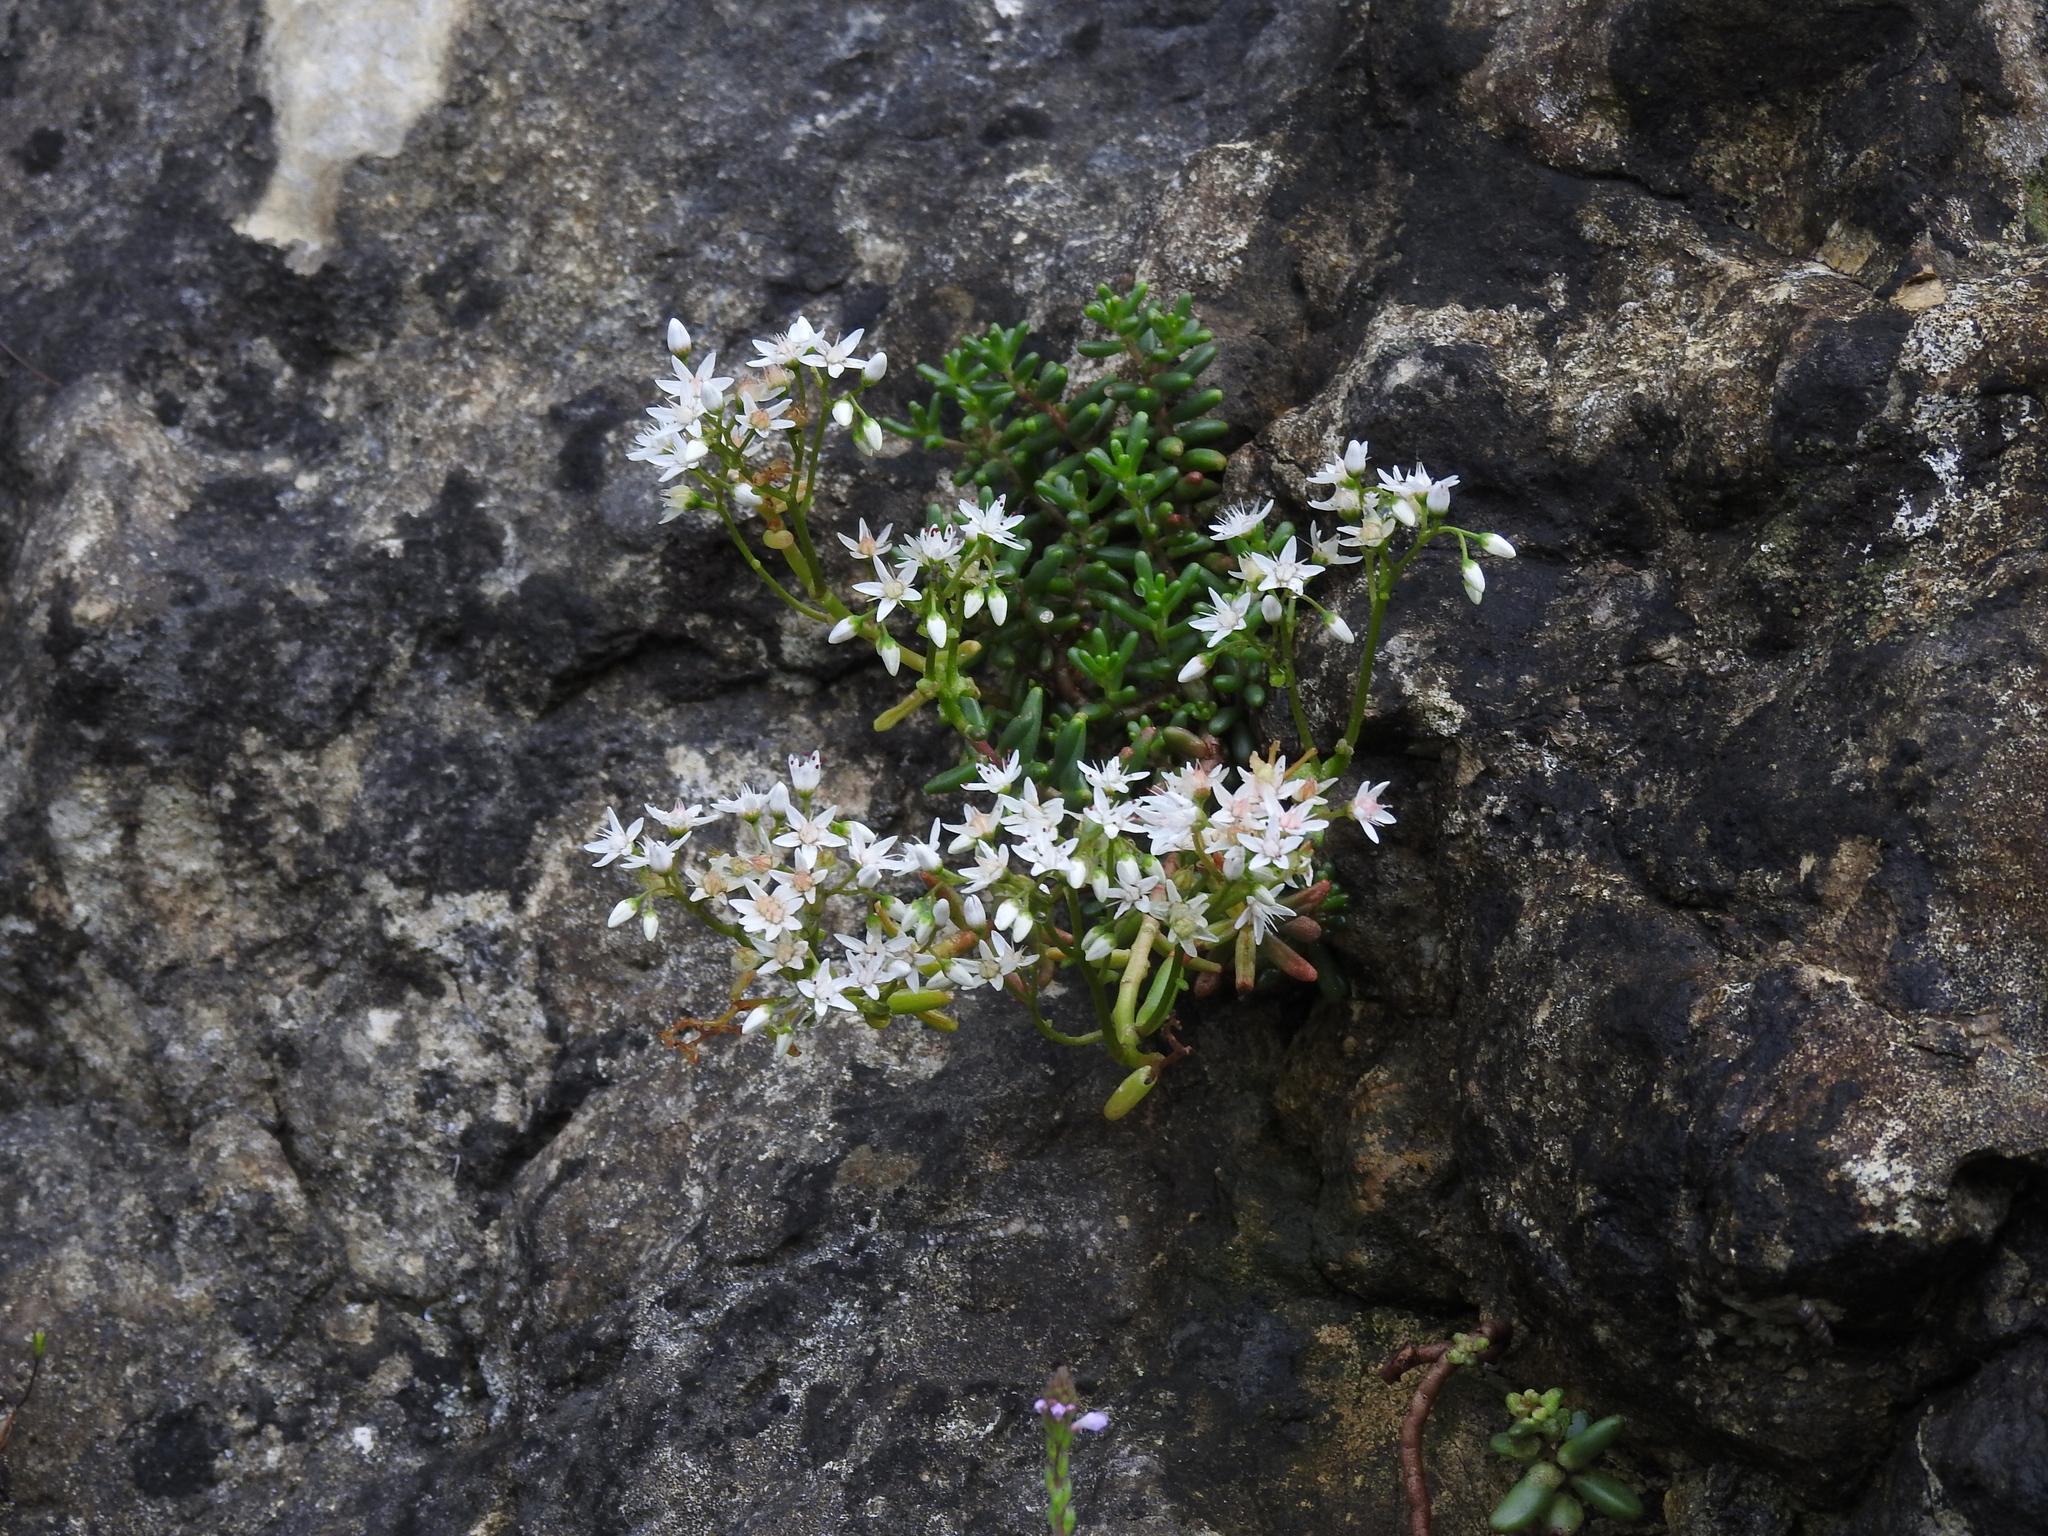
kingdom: Plantae
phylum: Tracheophyta
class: Magnoliopsida
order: Saxifragales
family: Crassulaceae
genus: Sedum
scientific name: Sedum album
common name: White stonecrop
